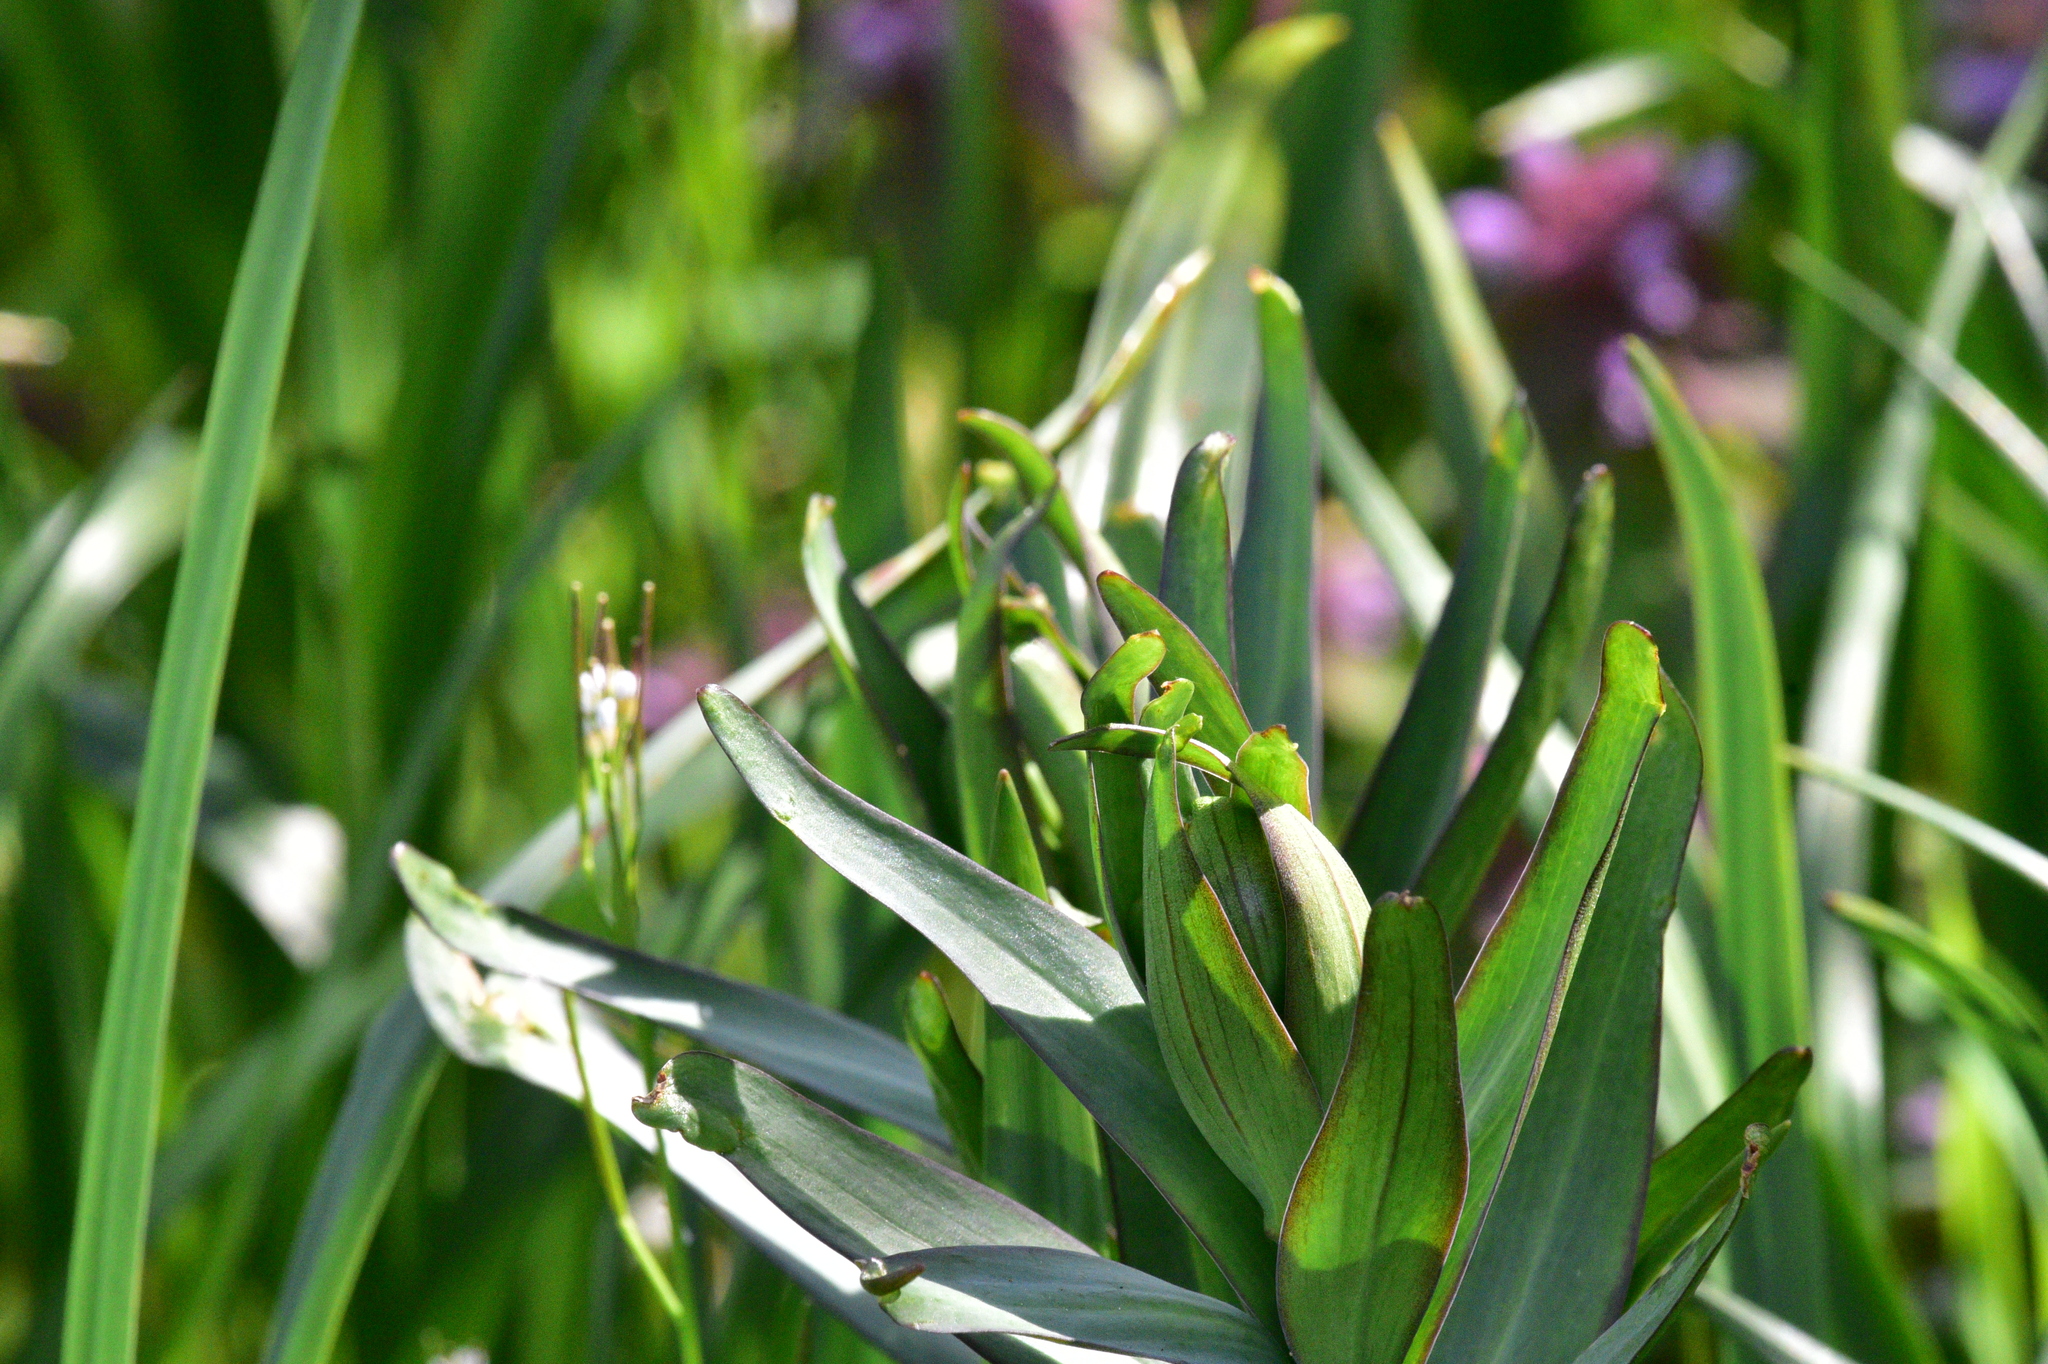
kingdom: Plantae
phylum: Tracheophyta
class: Liliopsida
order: Liliales
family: Liliaceae
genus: Fritillaria
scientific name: Fritillaria affinis
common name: Ojai fritillary
